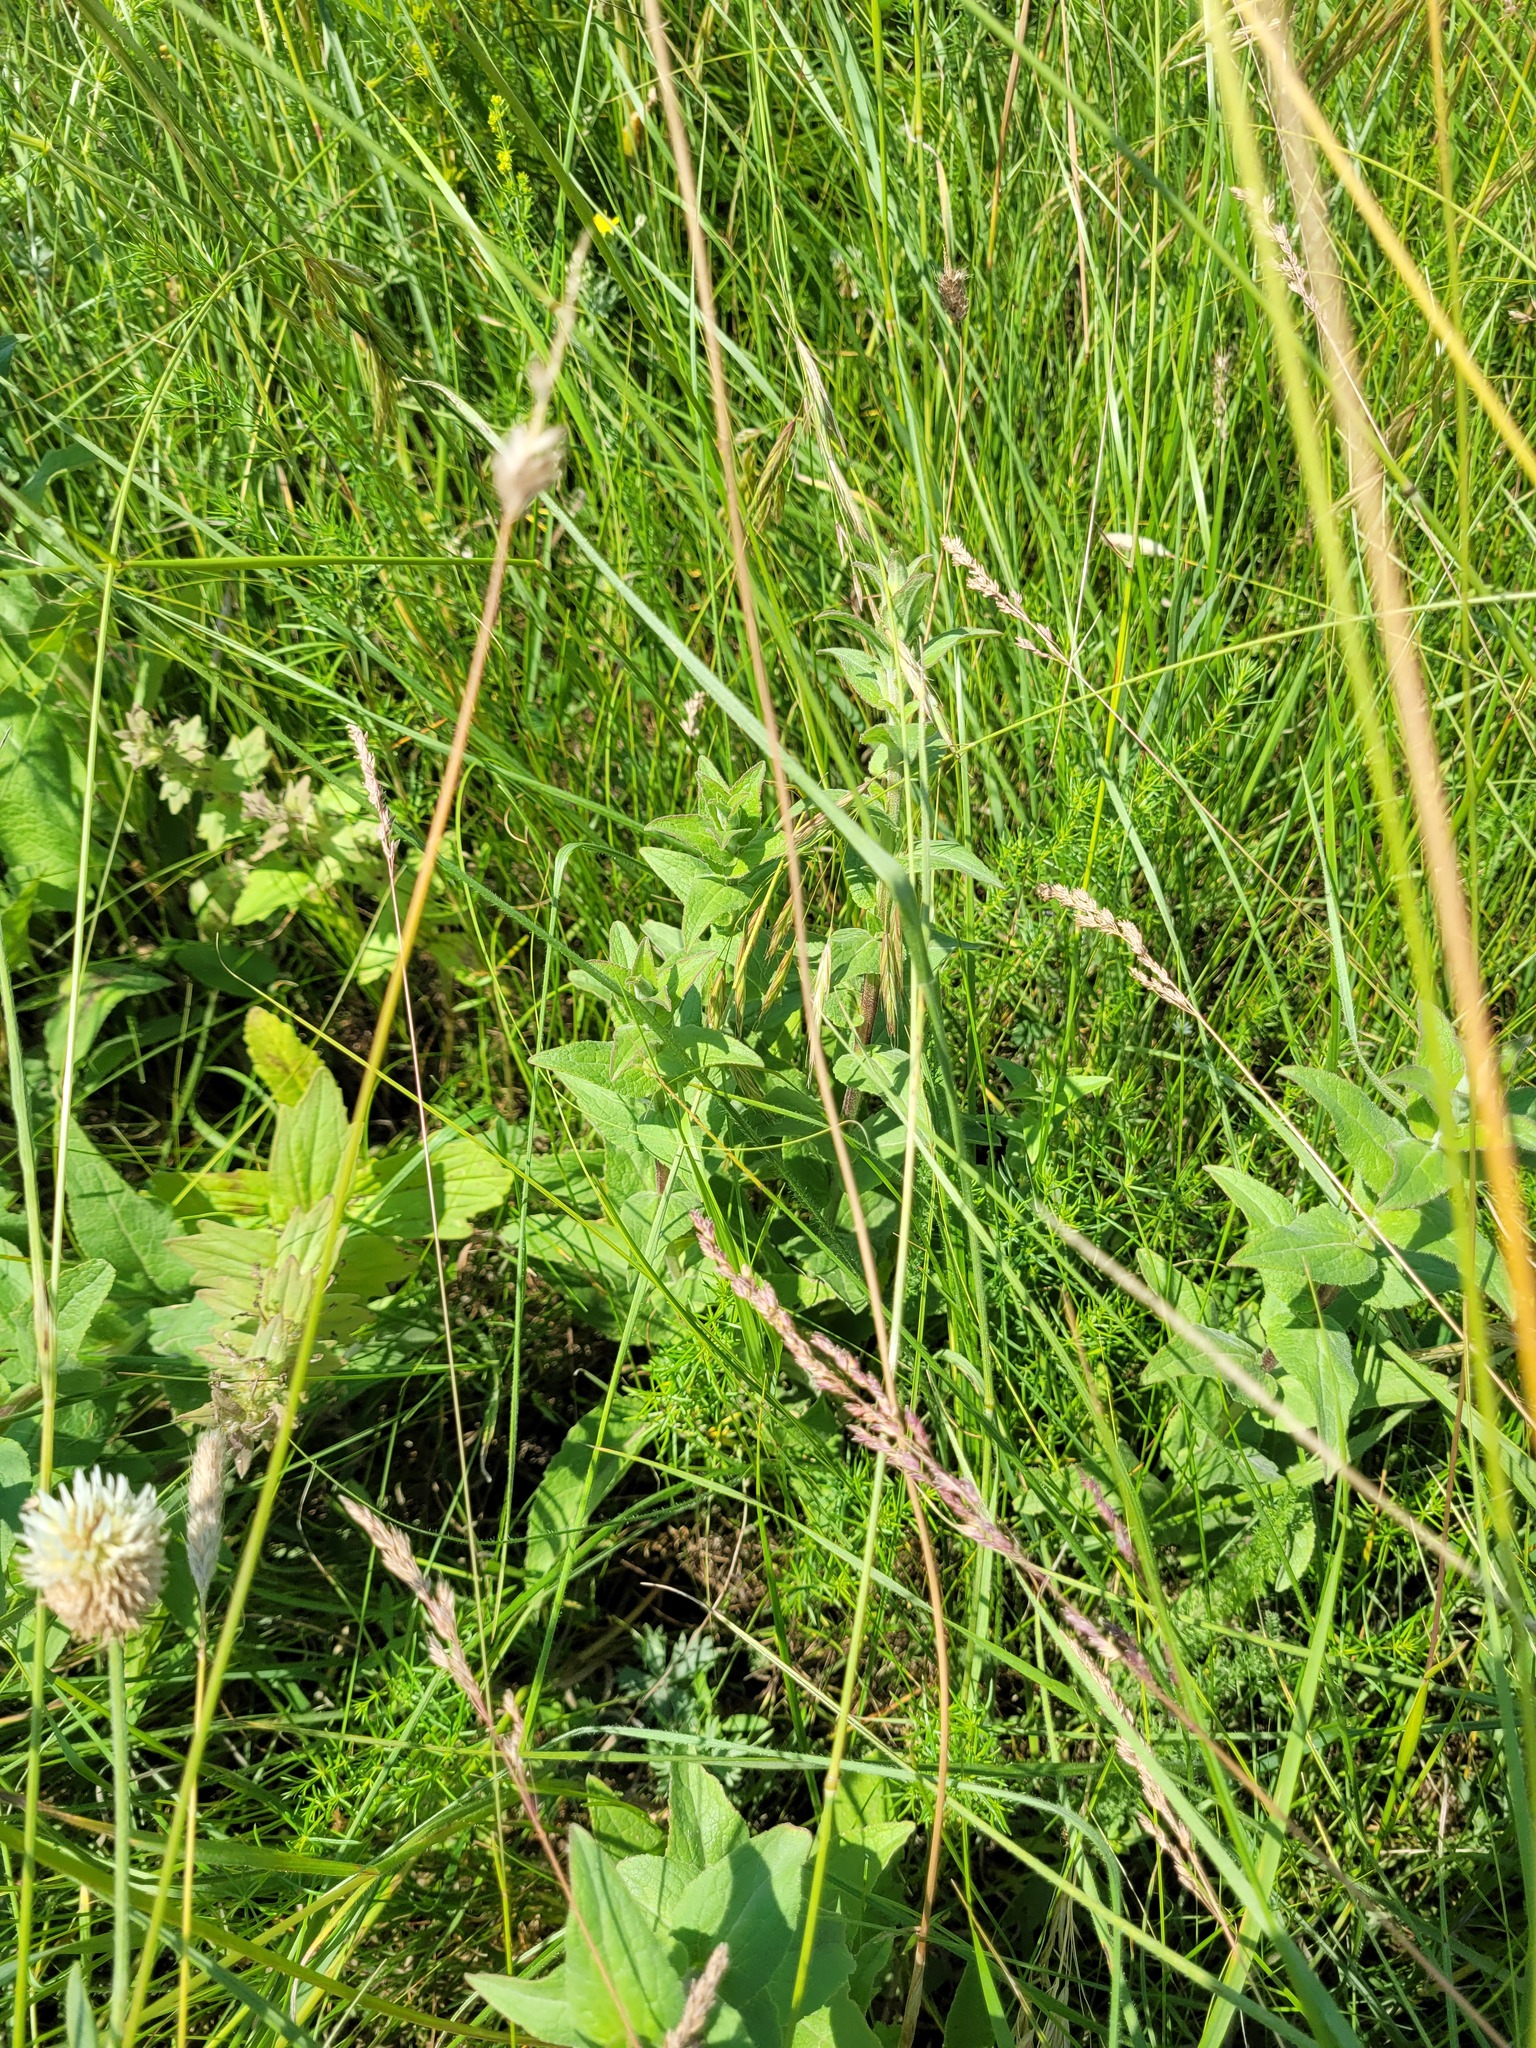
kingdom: Plantae
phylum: Tracheophyta
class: Magnoliopsida
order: Asterales
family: Campanulaceae
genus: Campanula
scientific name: Campanula bononiensis
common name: Pale bellflower
